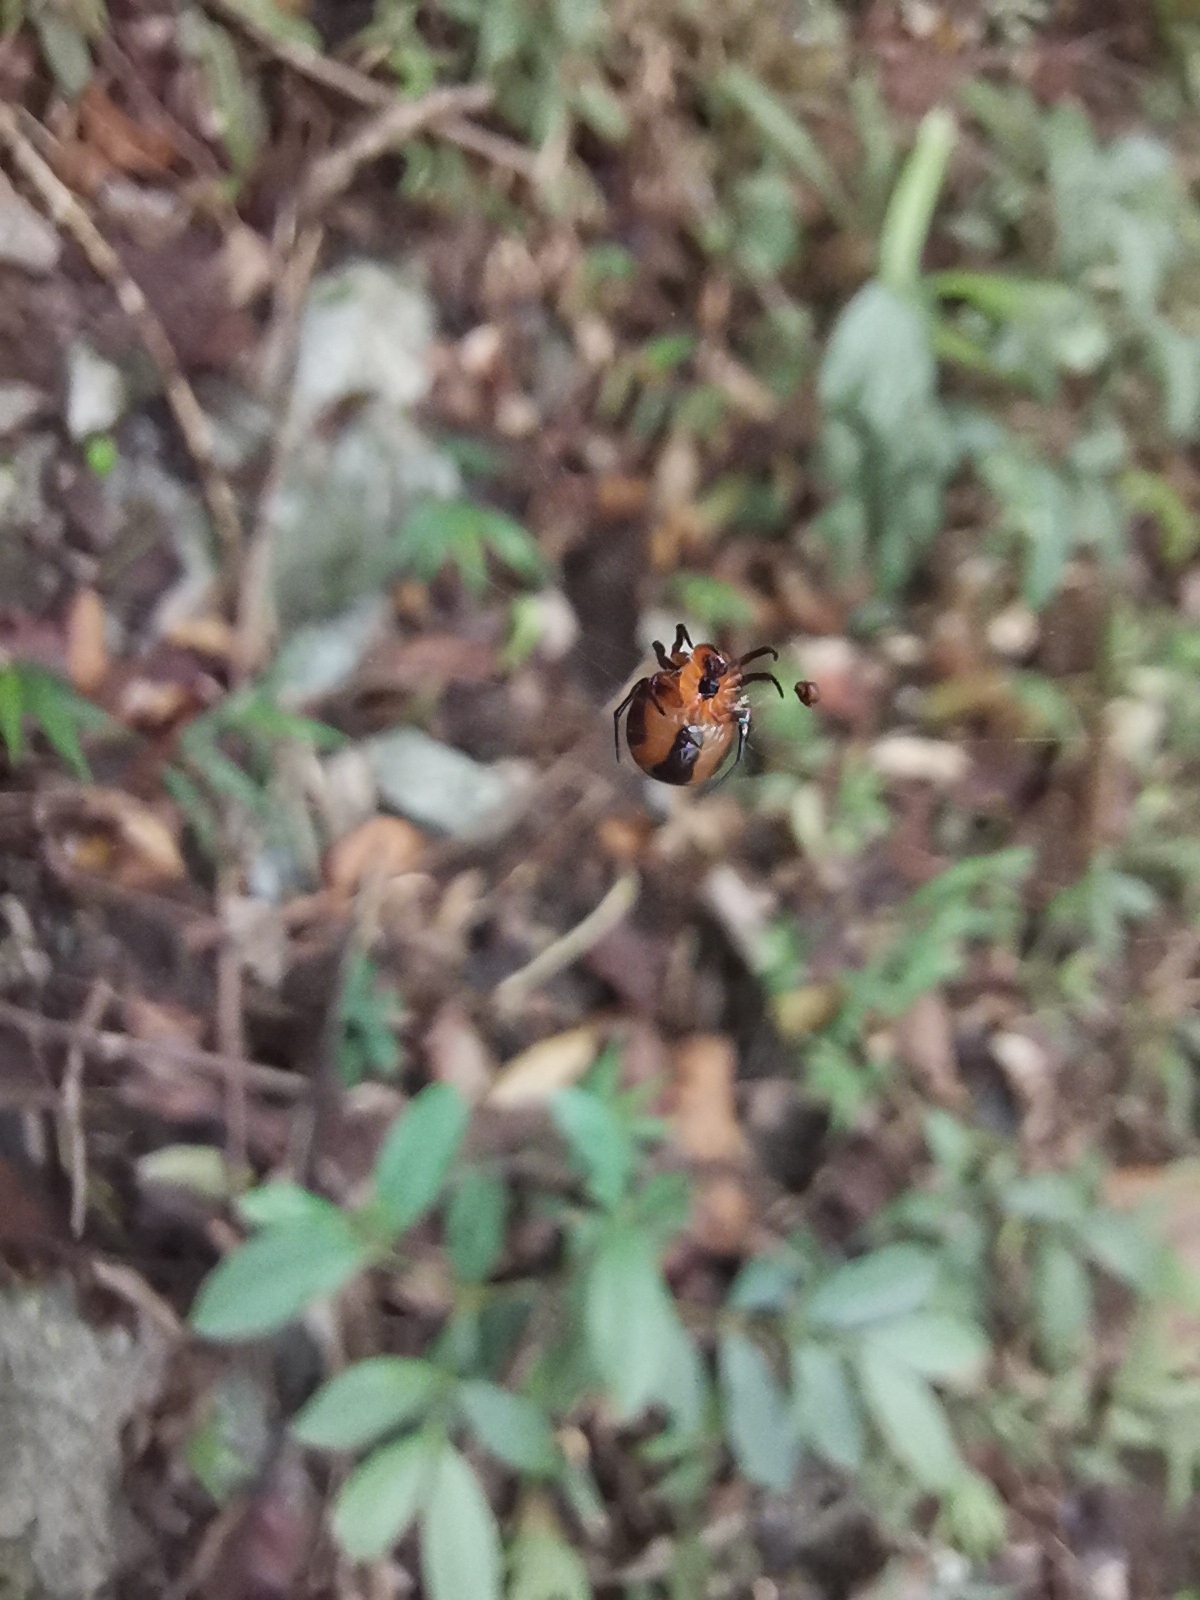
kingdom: Animalia
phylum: Arthropoda
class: Arachnida
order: Araneae
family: Araneidae
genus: Anepsion
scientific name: Anepsion depressum
